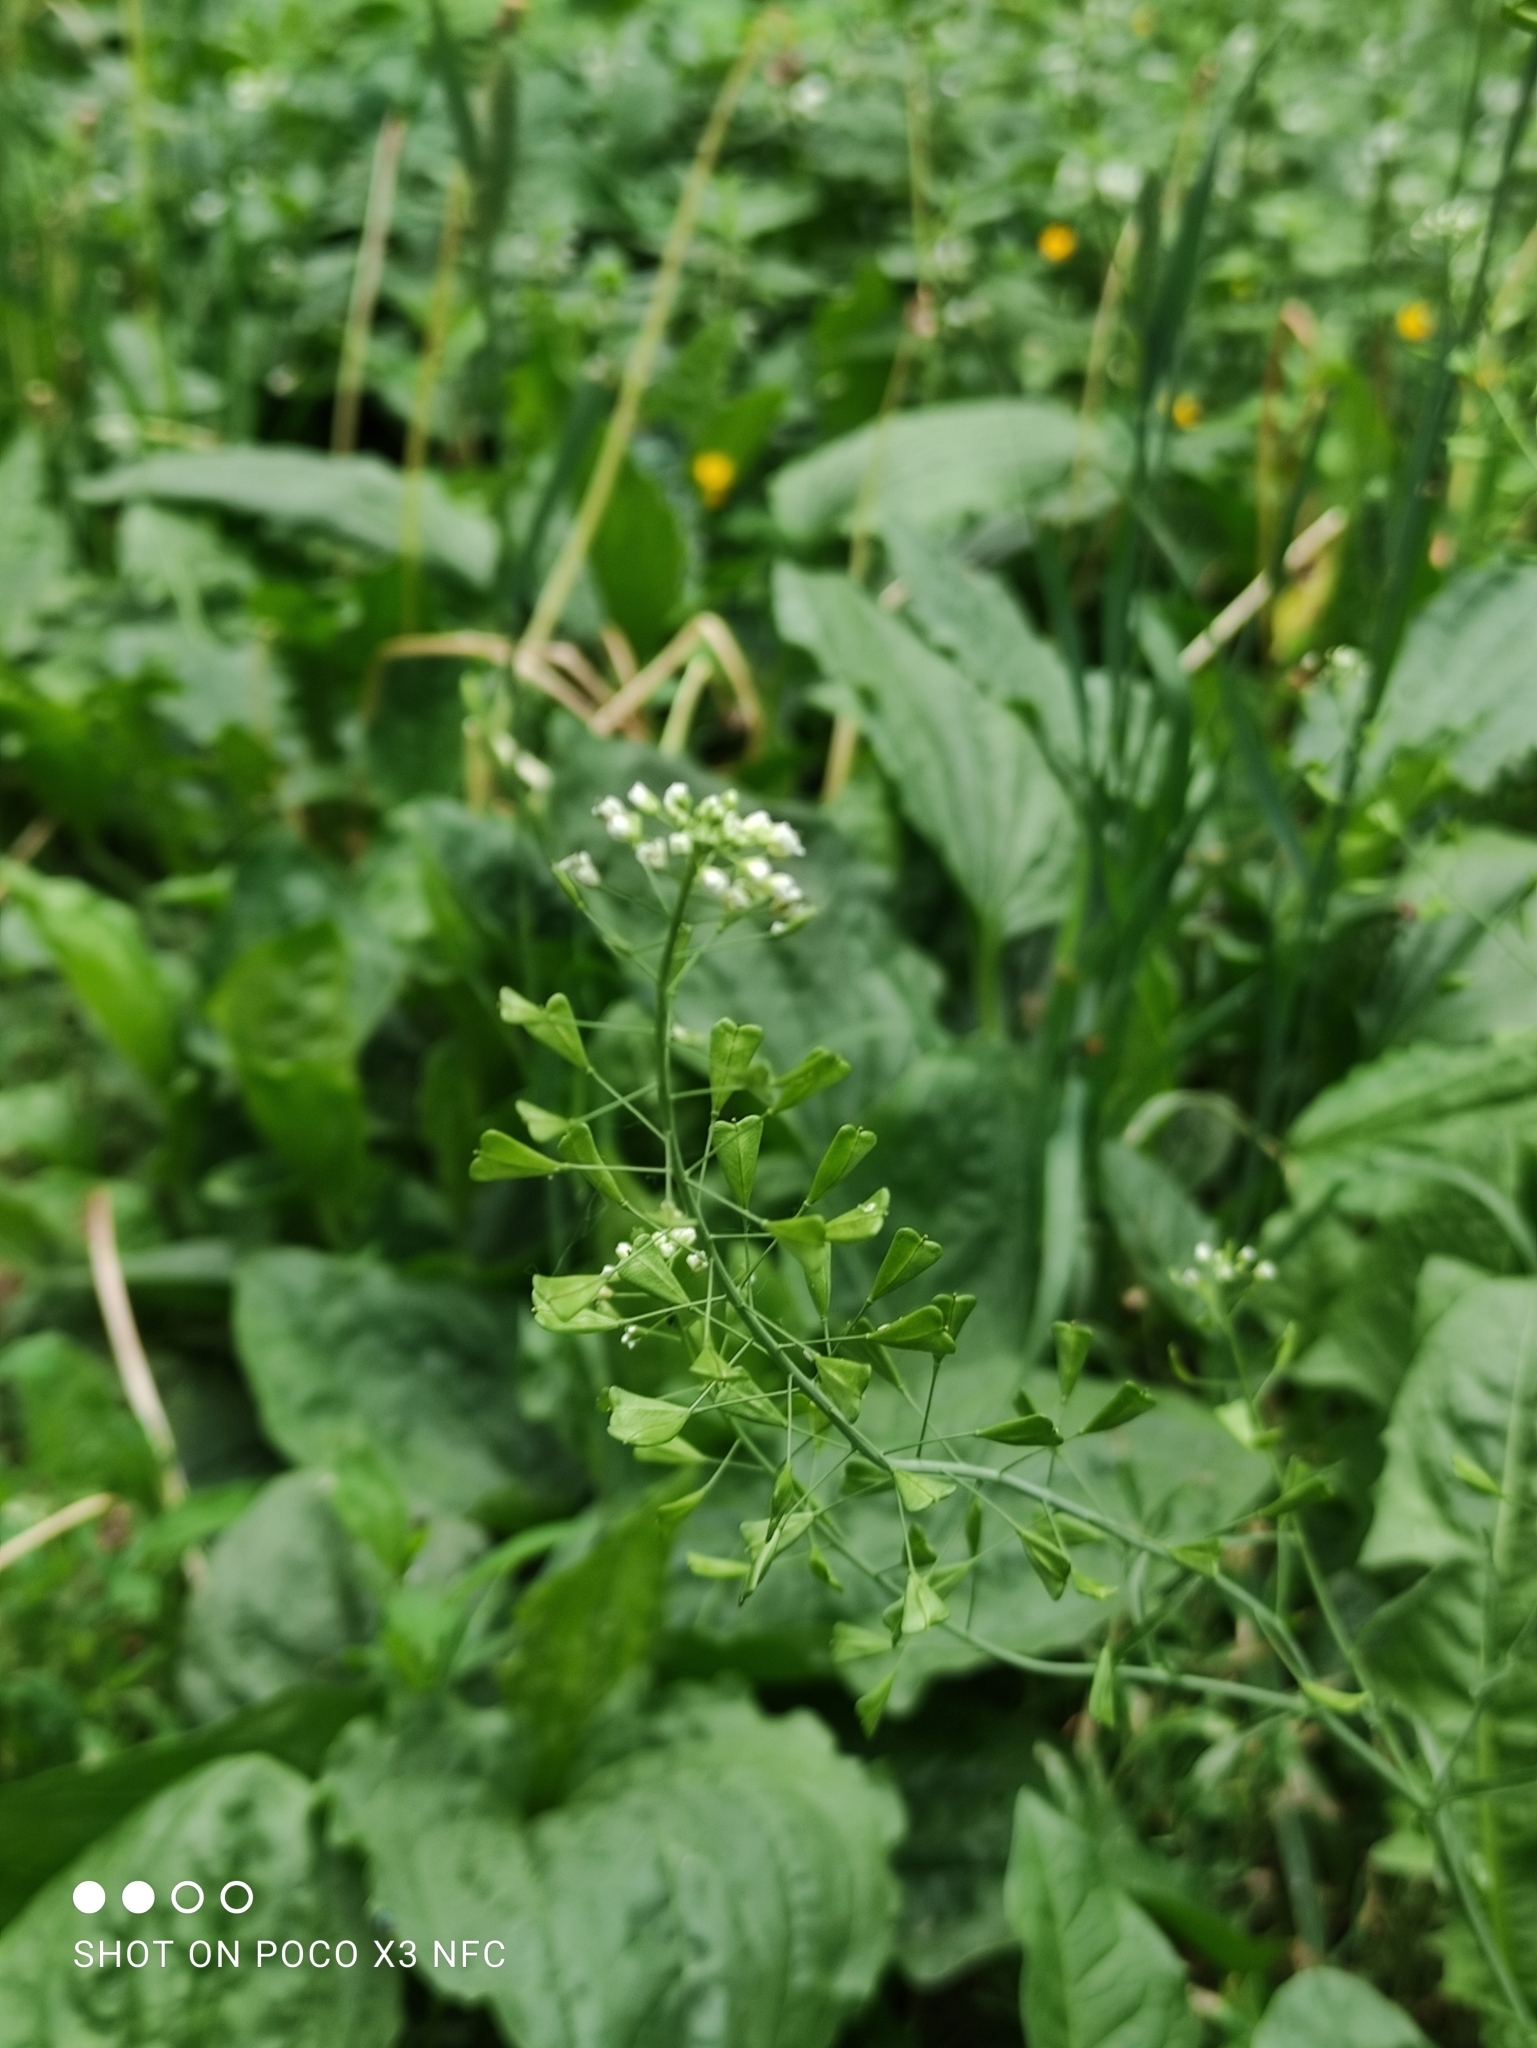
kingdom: Plantae
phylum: Tracheophyta
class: Magnoliopsida
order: Brassicales
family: Brassicaceae
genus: Capsella
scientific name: Capsella bursa-pastoris
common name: Shepherd's purse
